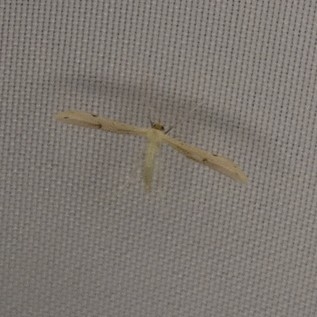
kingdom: Animalia
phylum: Arthropoda
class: Insecta
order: Lepidoptera
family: Pterophoridae
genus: Adaina
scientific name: Adaina
